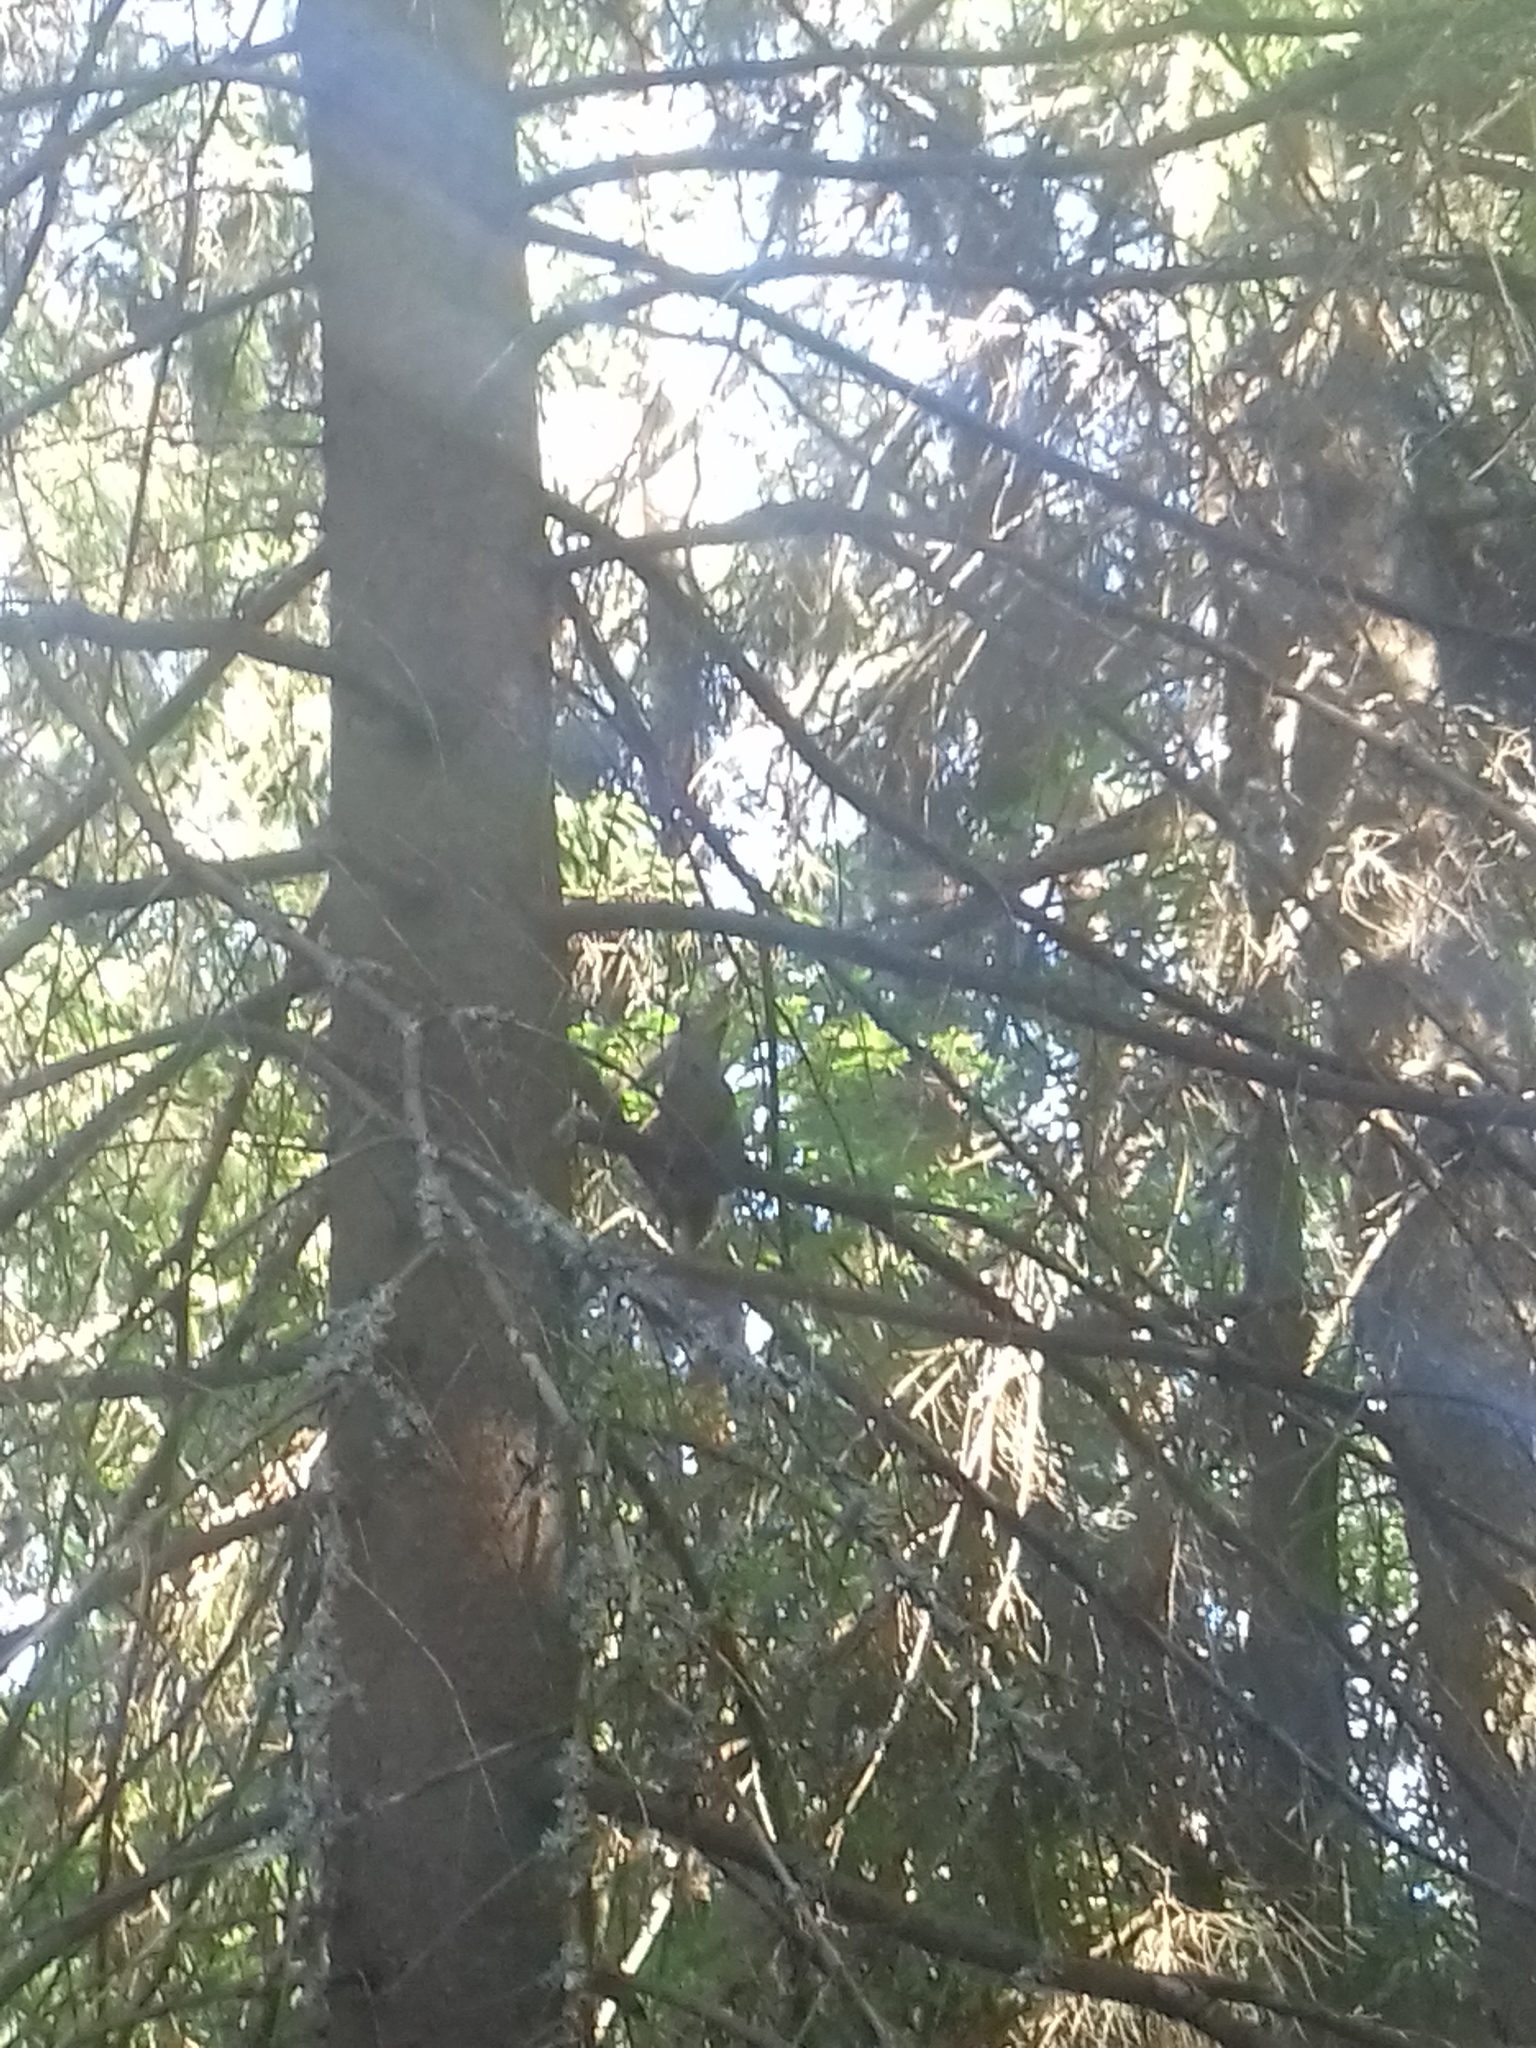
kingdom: Animalia
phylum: Chordata
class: Mammalia
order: Rodentia
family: Sciuridae
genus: Sciurus
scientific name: Sciurus vulgaris
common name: Eurasian red squirrel
